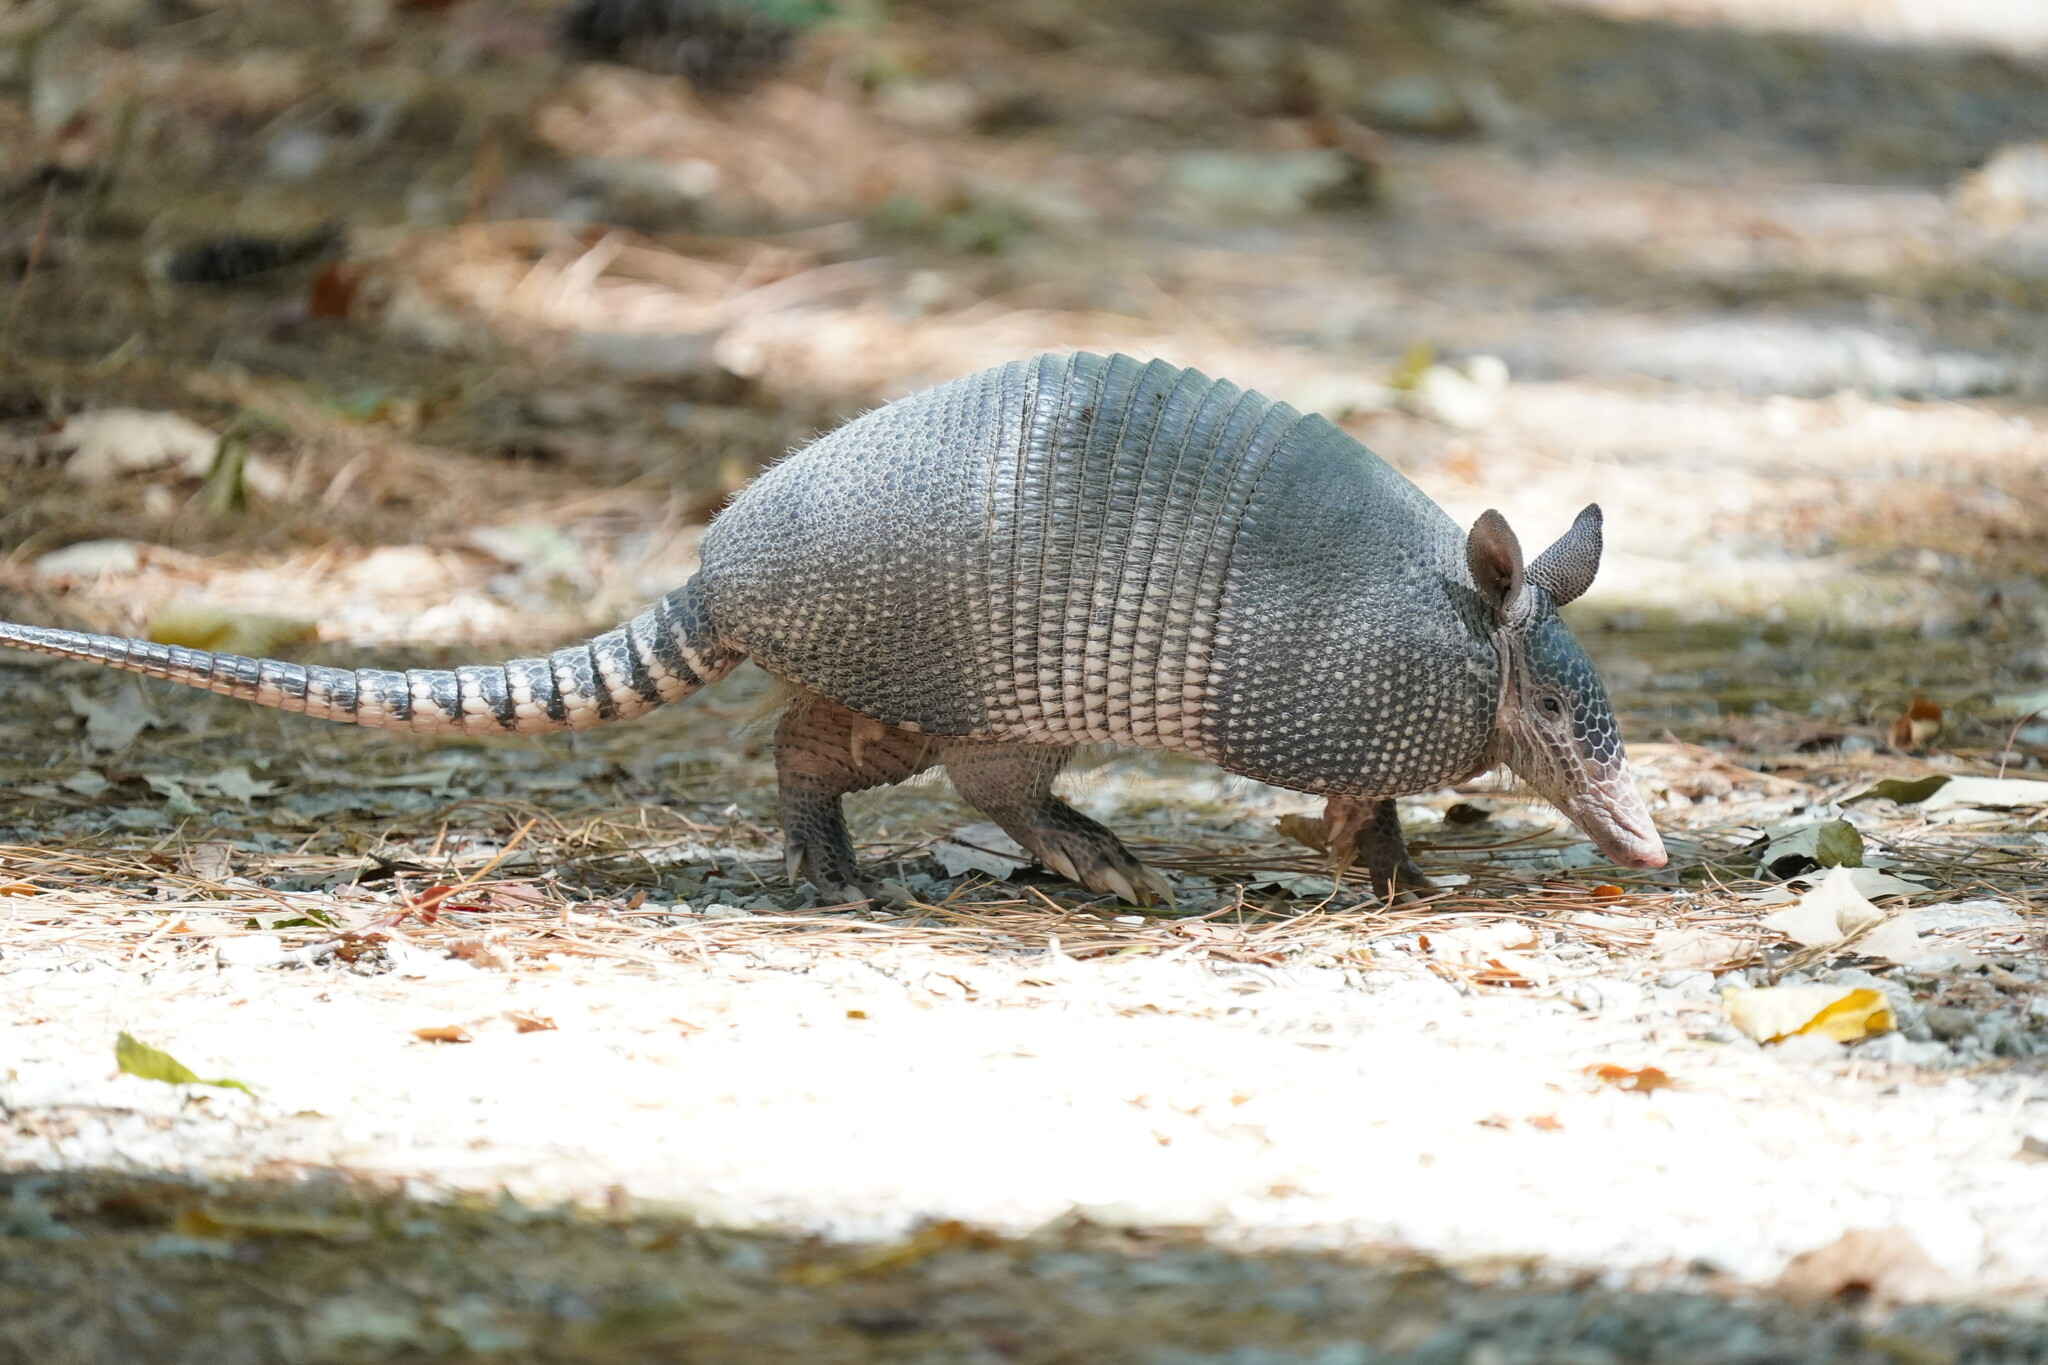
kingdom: Animalia
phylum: Chordata
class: Mammalia
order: Cingulata
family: Dasypodidae
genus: Dasypus
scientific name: Dasypus novemcinctus
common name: Nine-banded armadillo
